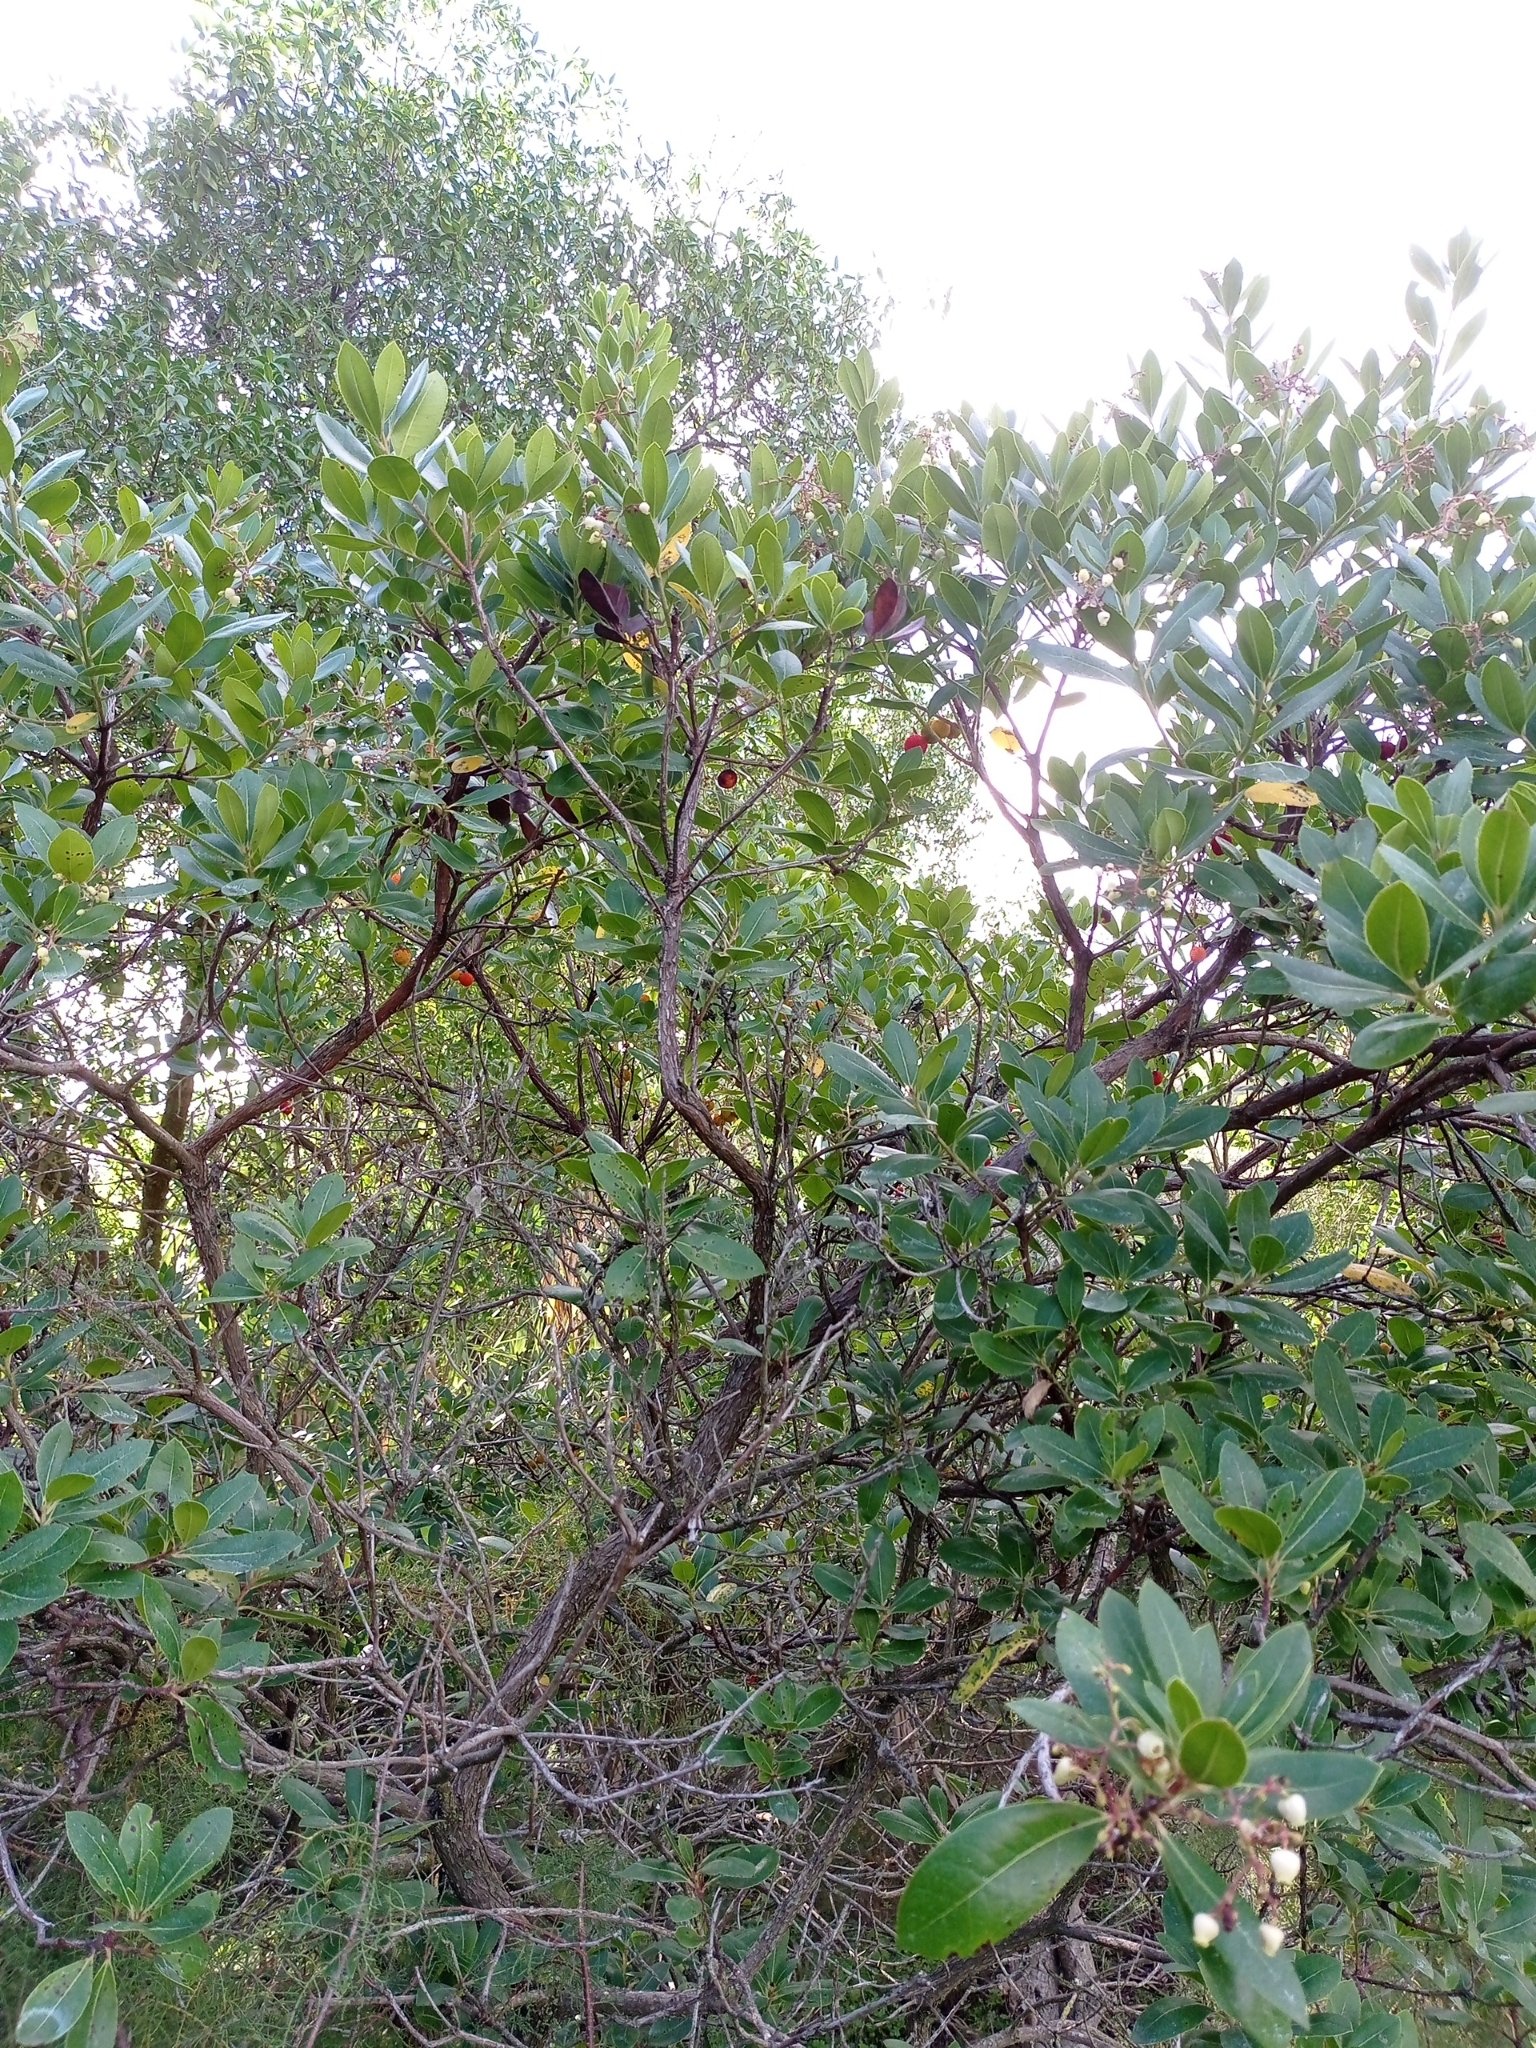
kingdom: Plantae
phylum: Tracheophyta
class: Magnoliopsida
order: Ericales
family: Ericaceae
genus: Arbutus
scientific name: Arbutus unedo
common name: Strawberry-tree
